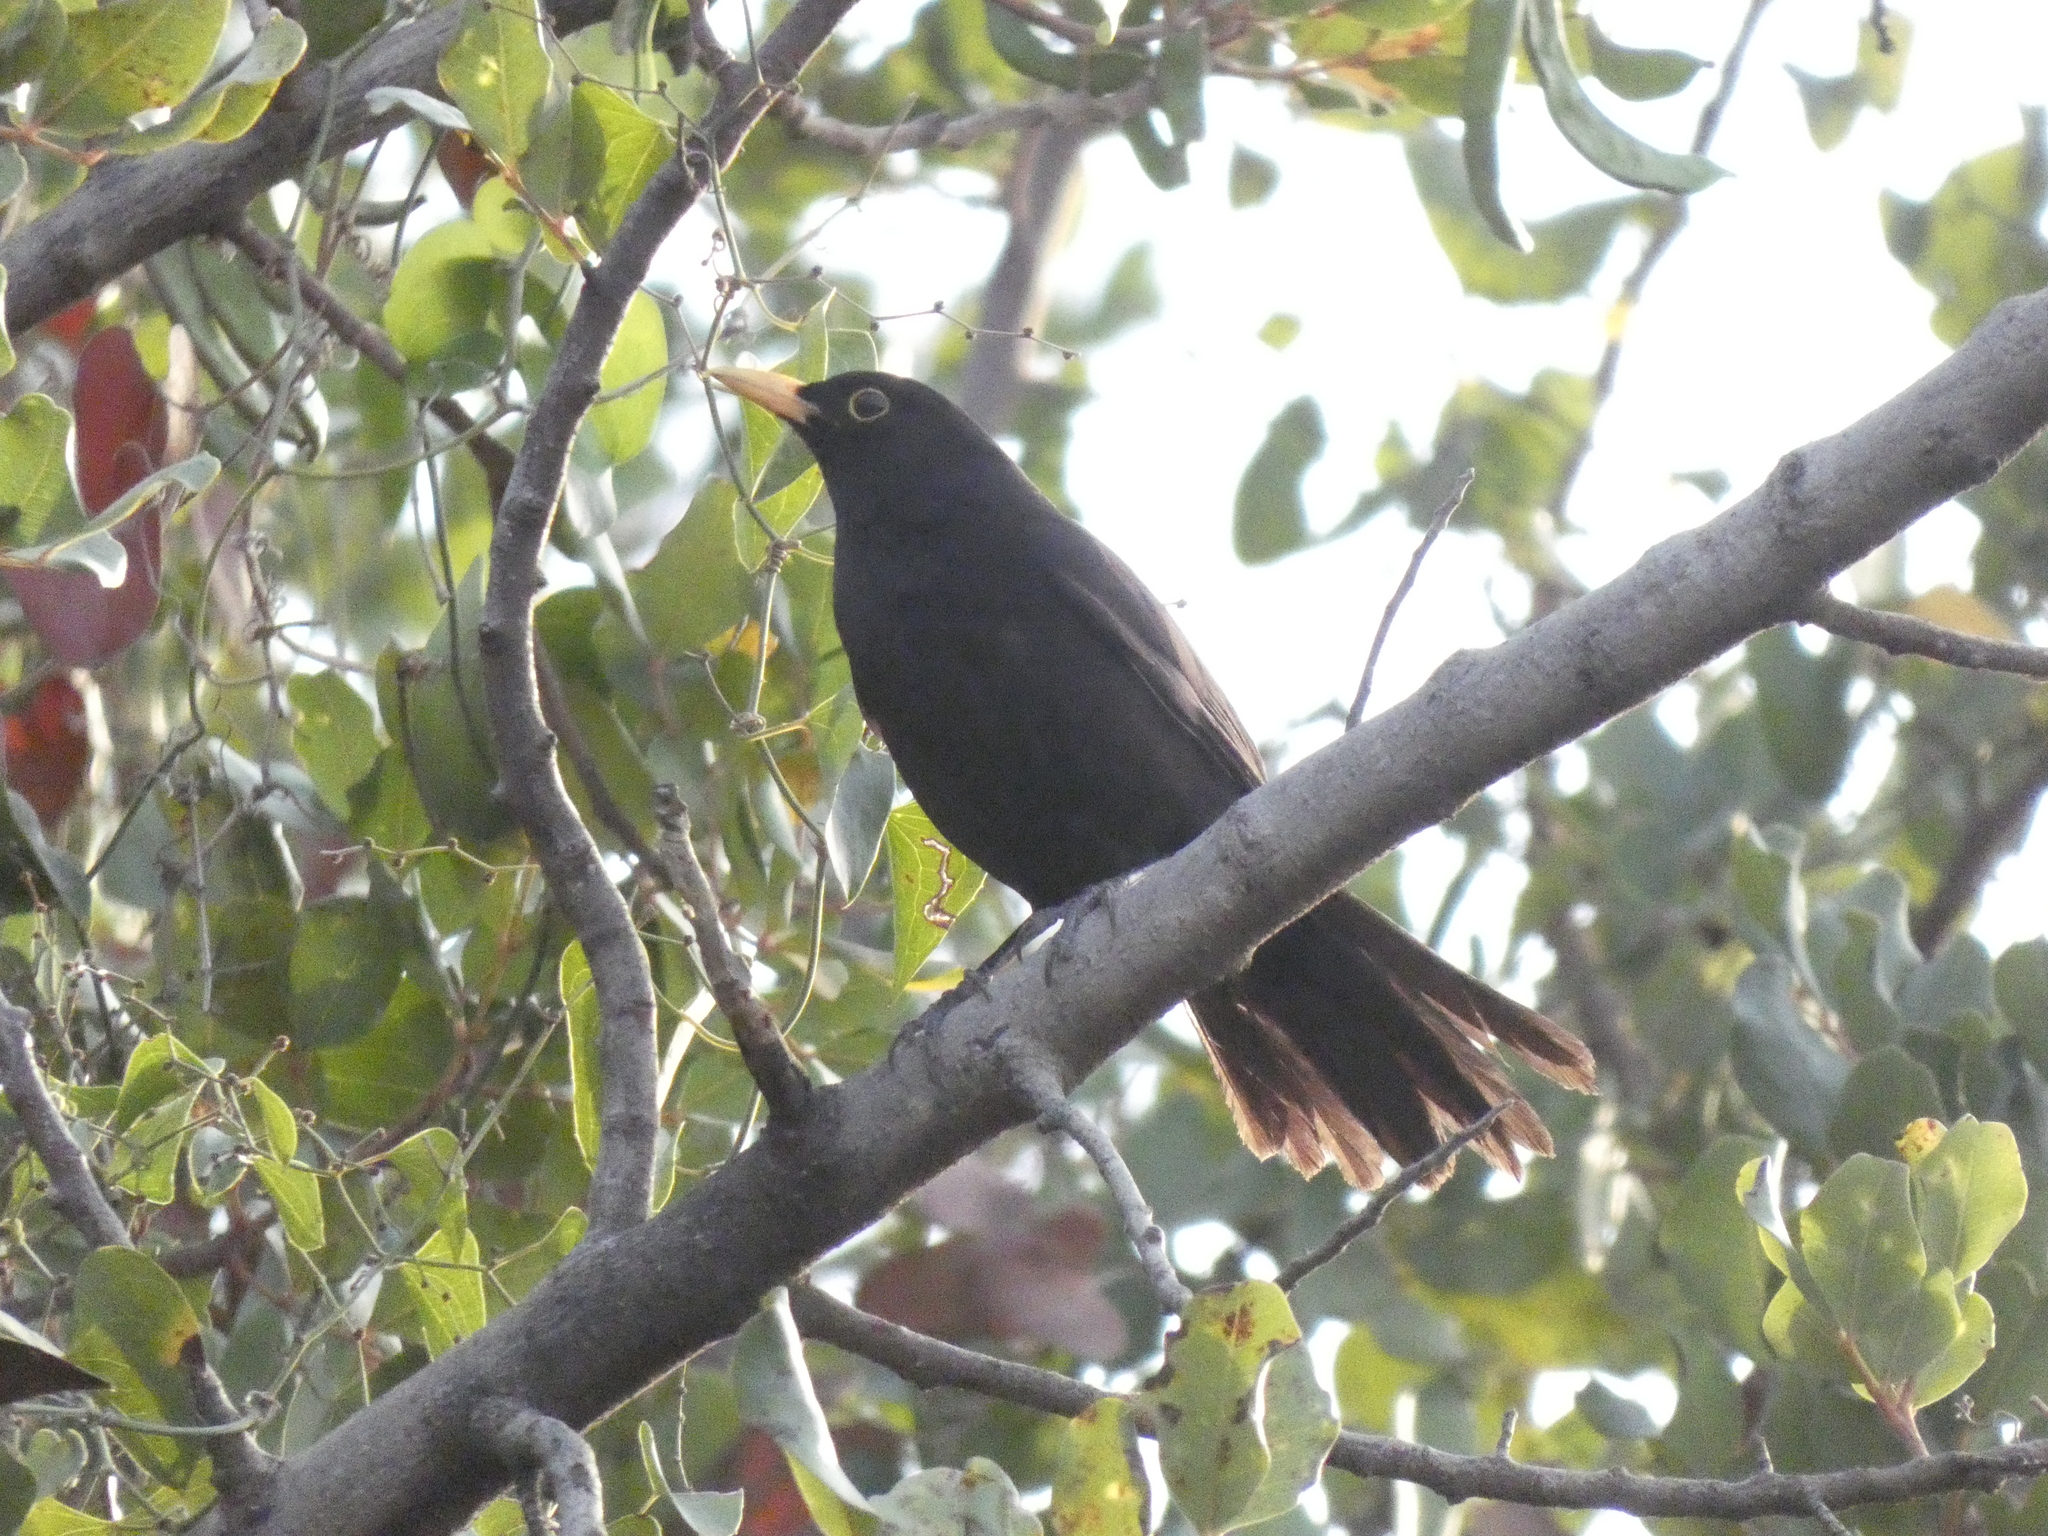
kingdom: Animalia
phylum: Chordata
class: Aves
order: Passeriformes
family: Turdidae
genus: Turdus
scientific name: Turdus merula
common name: Common blackbird
